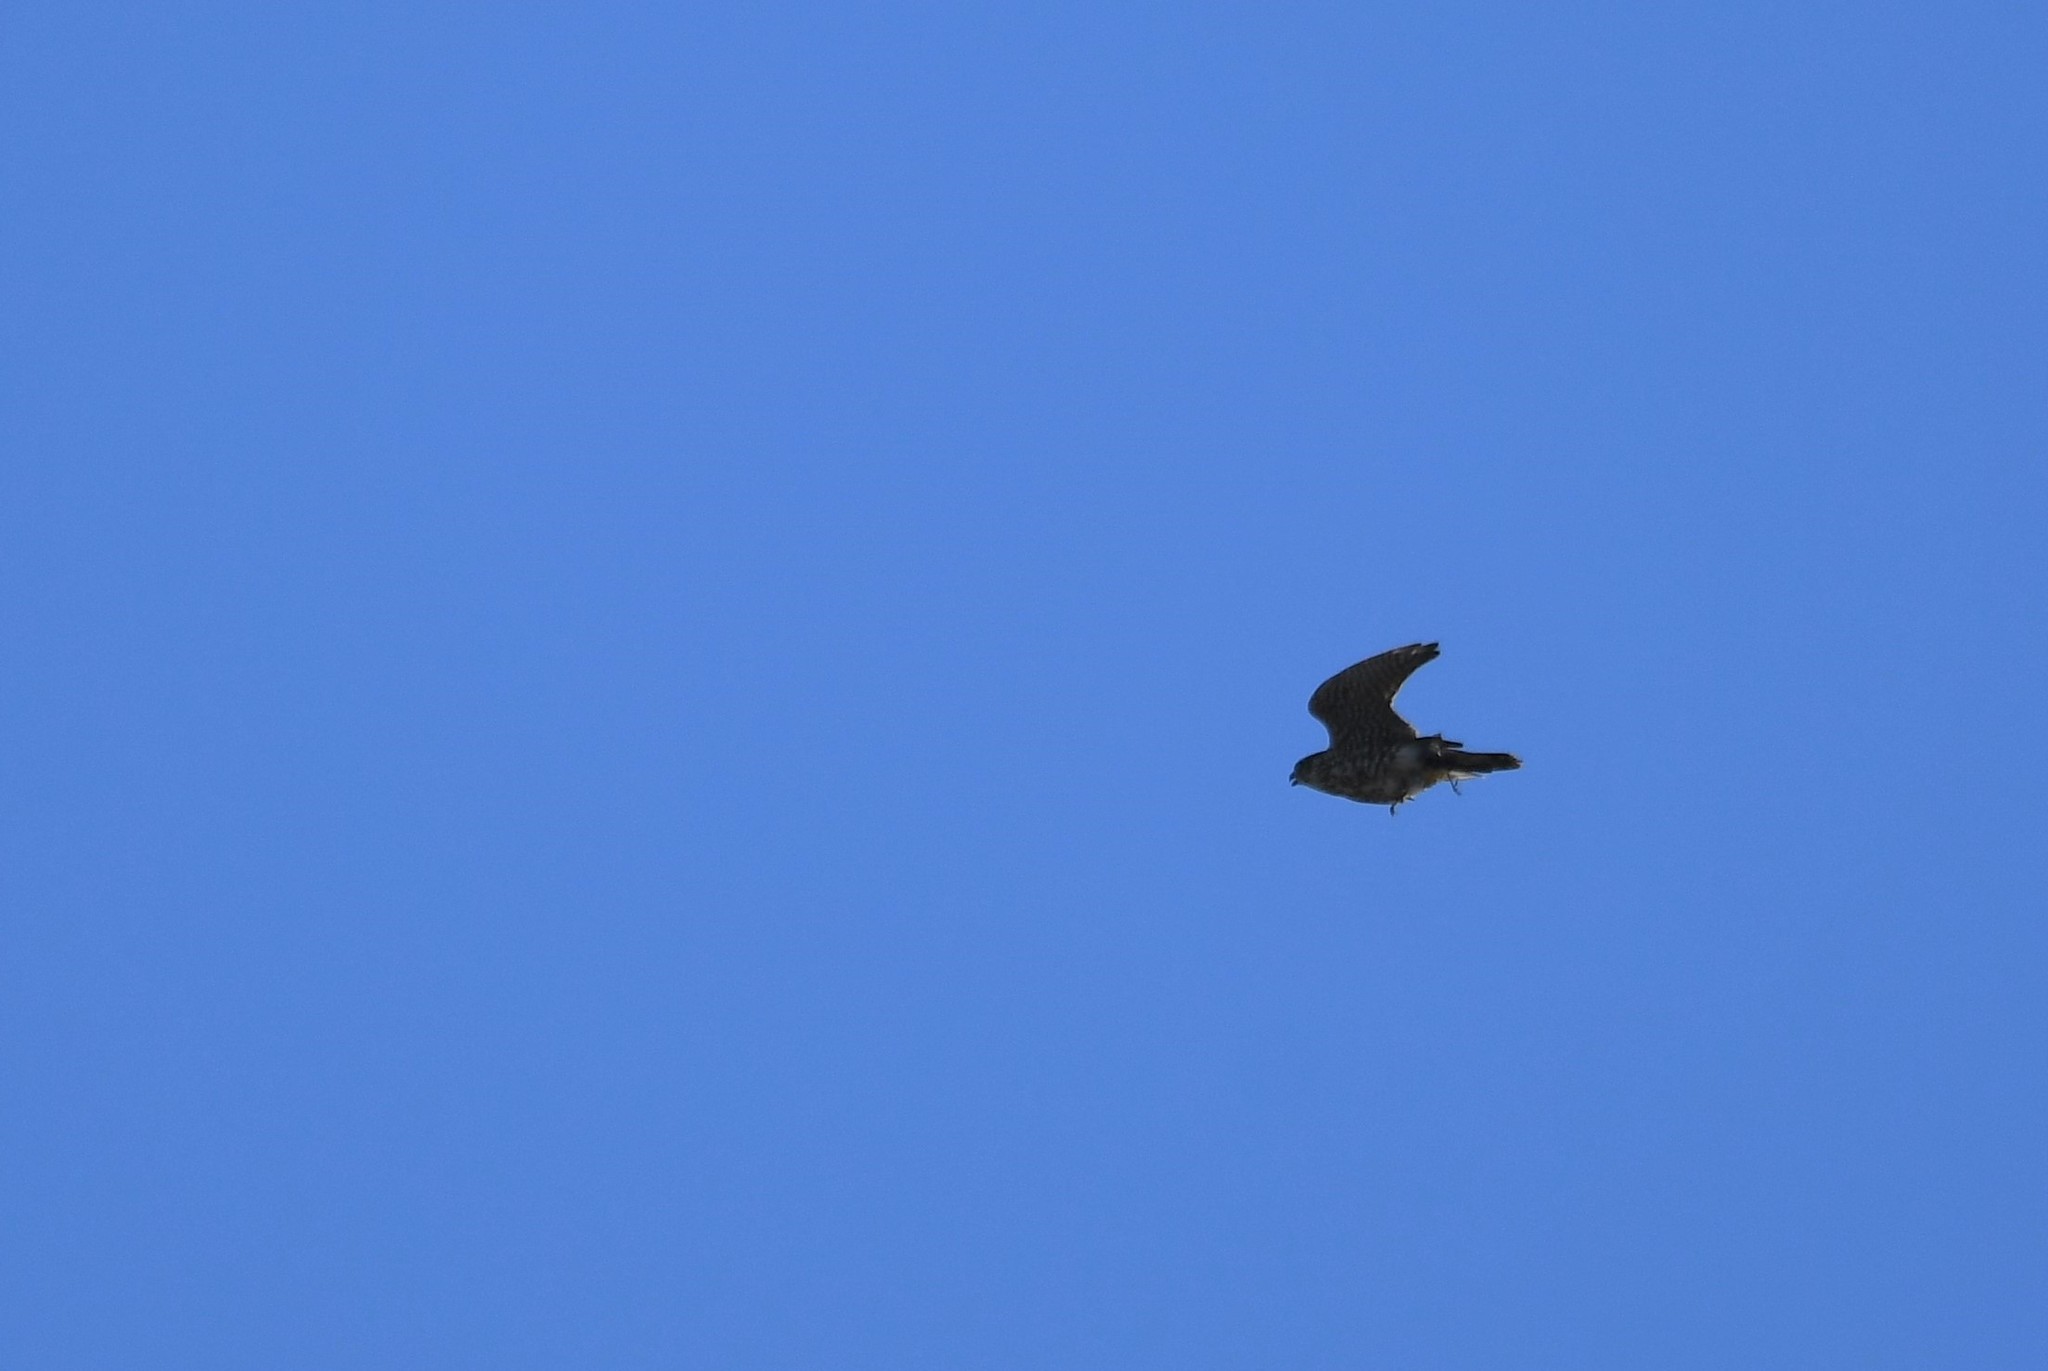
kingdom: Animalia
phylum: Chordata
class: Aves
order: Falconiformes
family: Falconidae
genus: Falco
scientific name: Falco columbarius
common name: Merlin
